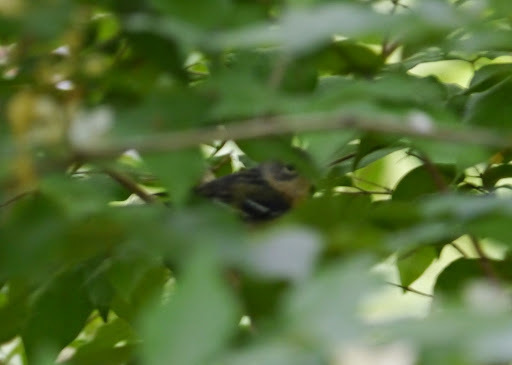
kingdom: Animalia
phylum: Chordata
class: Aves
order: Passeriformes
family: Parulidae
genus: Setophaga
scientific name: Setophaga castanea
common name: Bay-breasted warbler
